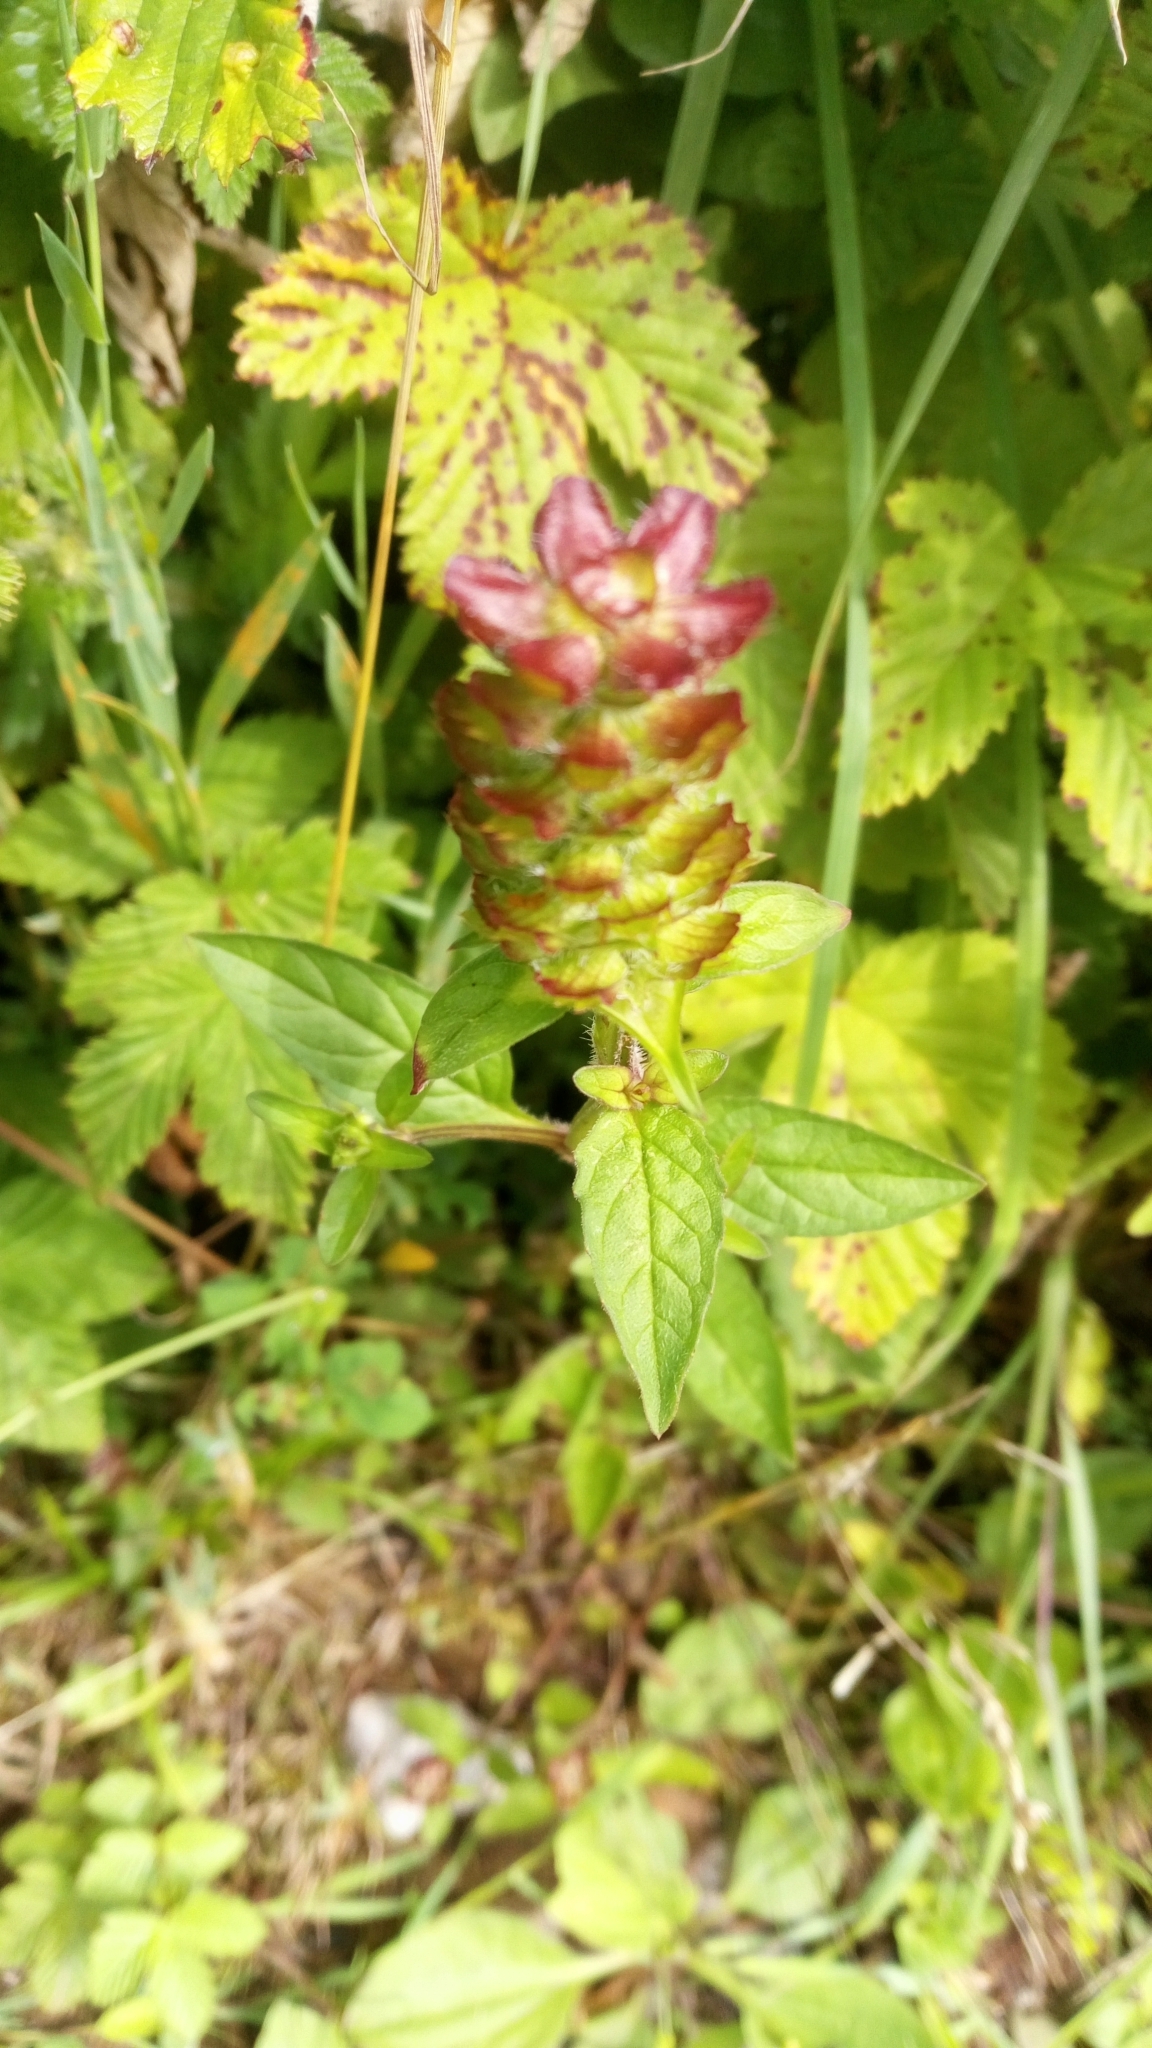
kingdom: Plantae
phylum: Tracheophyta
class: Magnoliopsida
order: Lamiales
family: Lamiaceae
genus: Prunella
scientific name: Prunella vulgaris
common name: Heal-all
